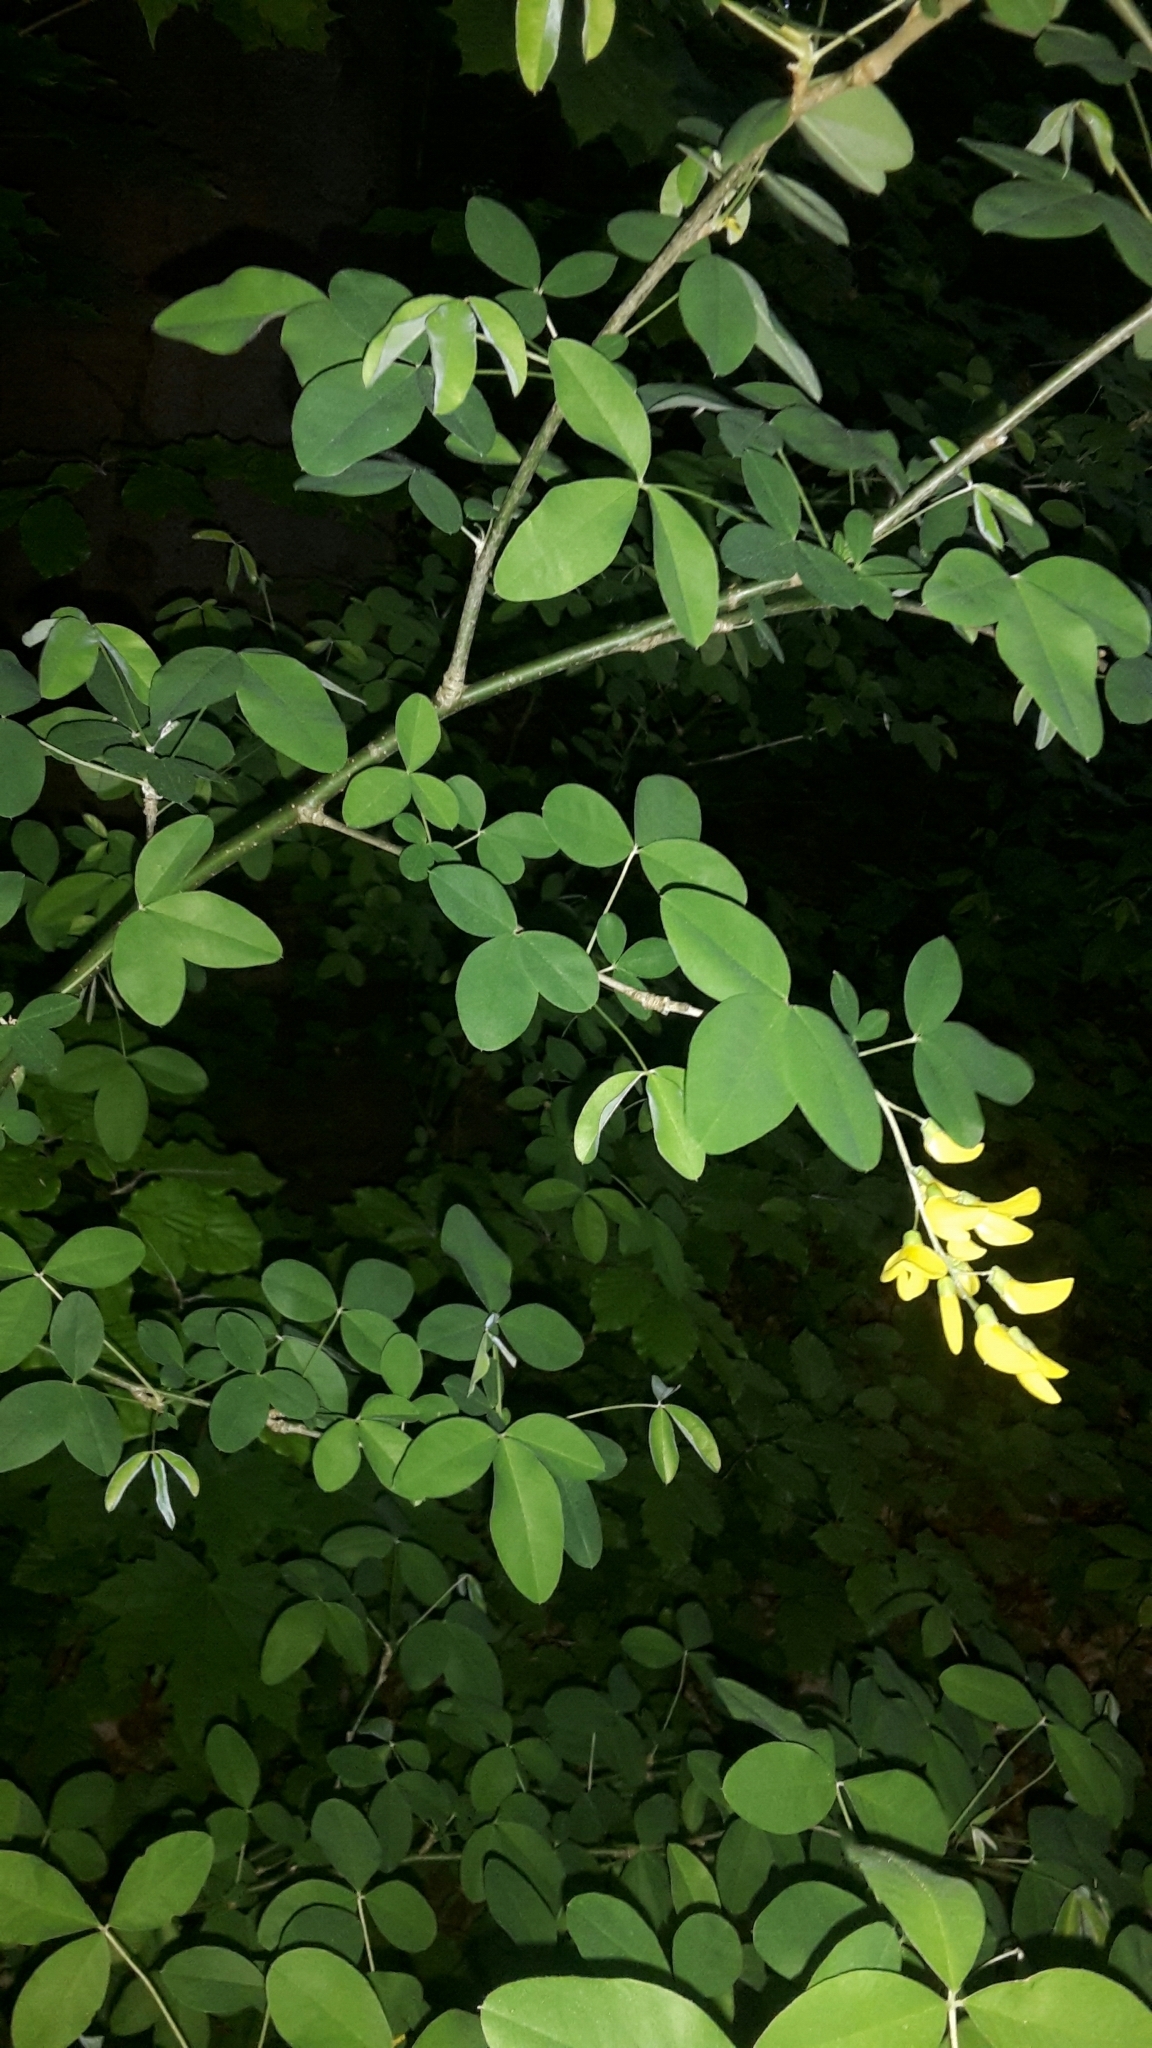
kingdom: Plantae
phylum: Tracheophyta
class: Magnoliopsida
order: Fabales
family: Fabaceae
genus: Laburnum
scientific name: Laburnum anagyroides
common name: Laburnum
